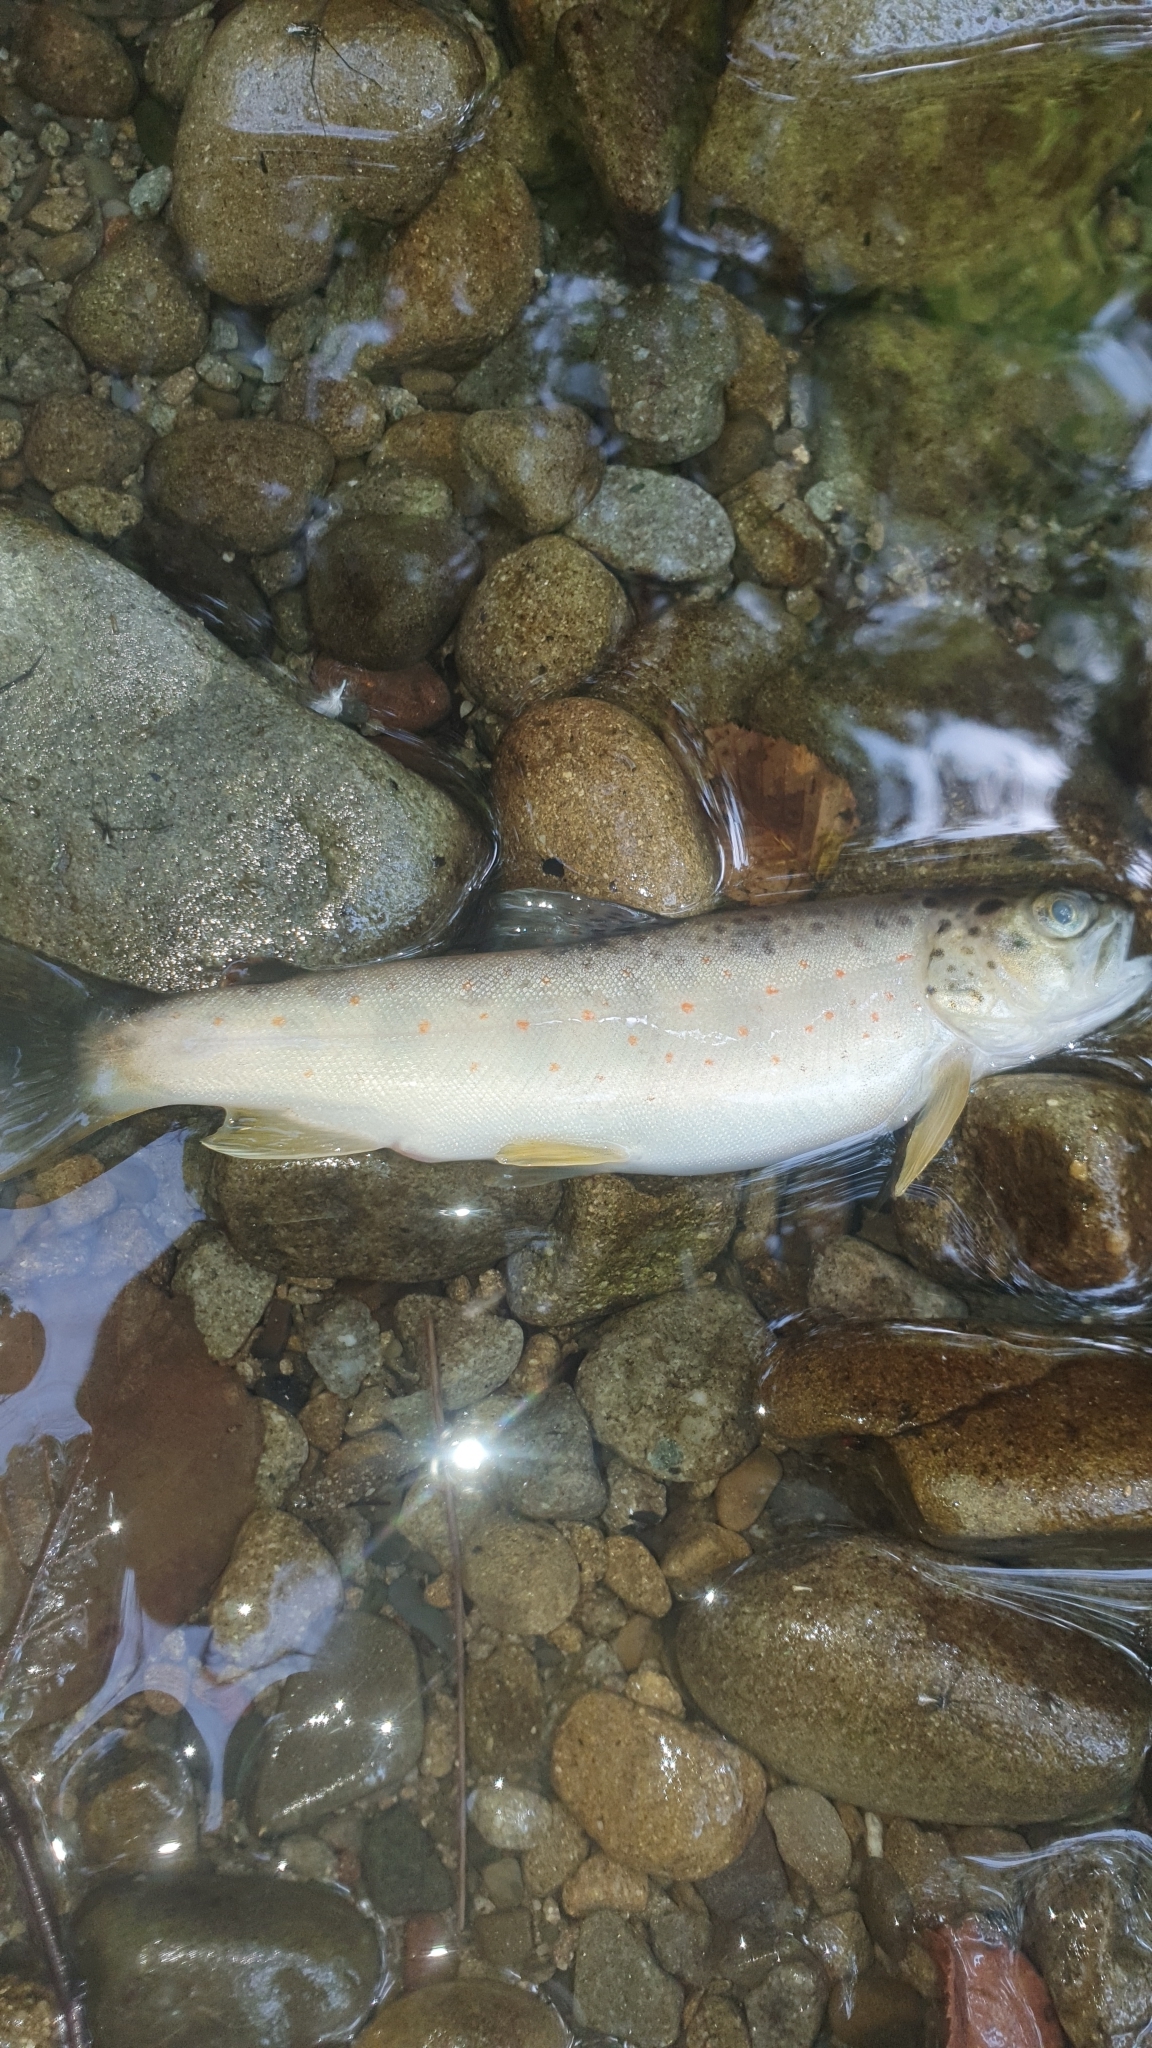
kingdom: Animalia
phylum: Chordata
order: Salmoniformes
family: Salmonidae
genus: Salmo
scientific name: Salmo trutta
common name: Brown trout
